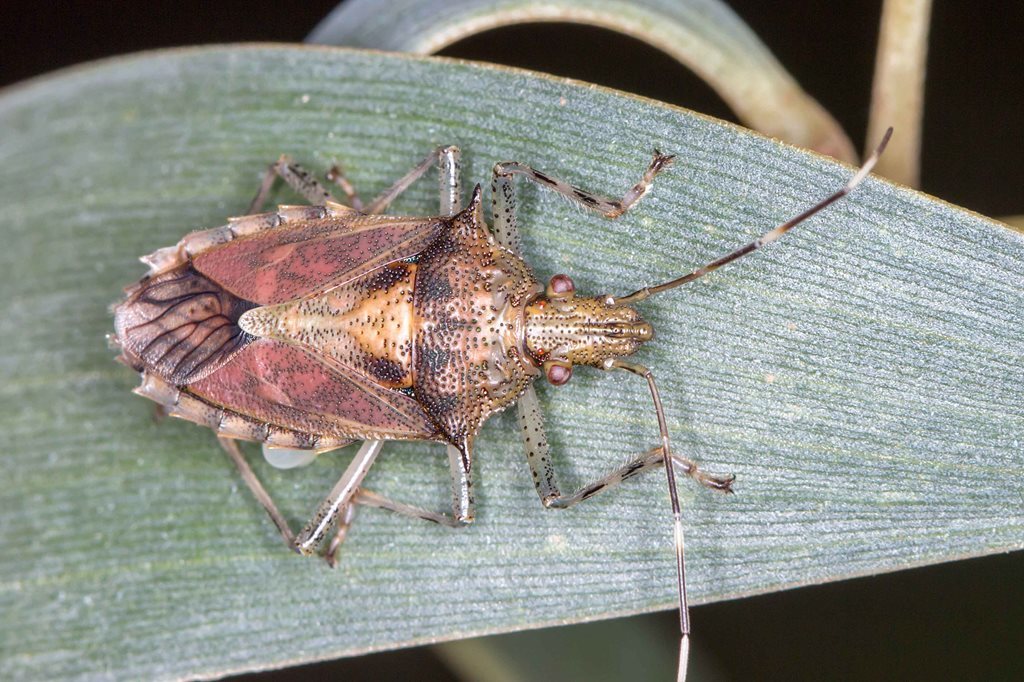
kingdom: Animalia
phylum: Arthropoda
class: Insecta
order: Hemiptera
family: Pentatomidae
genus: Bromocoris
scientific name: Bromocoris
